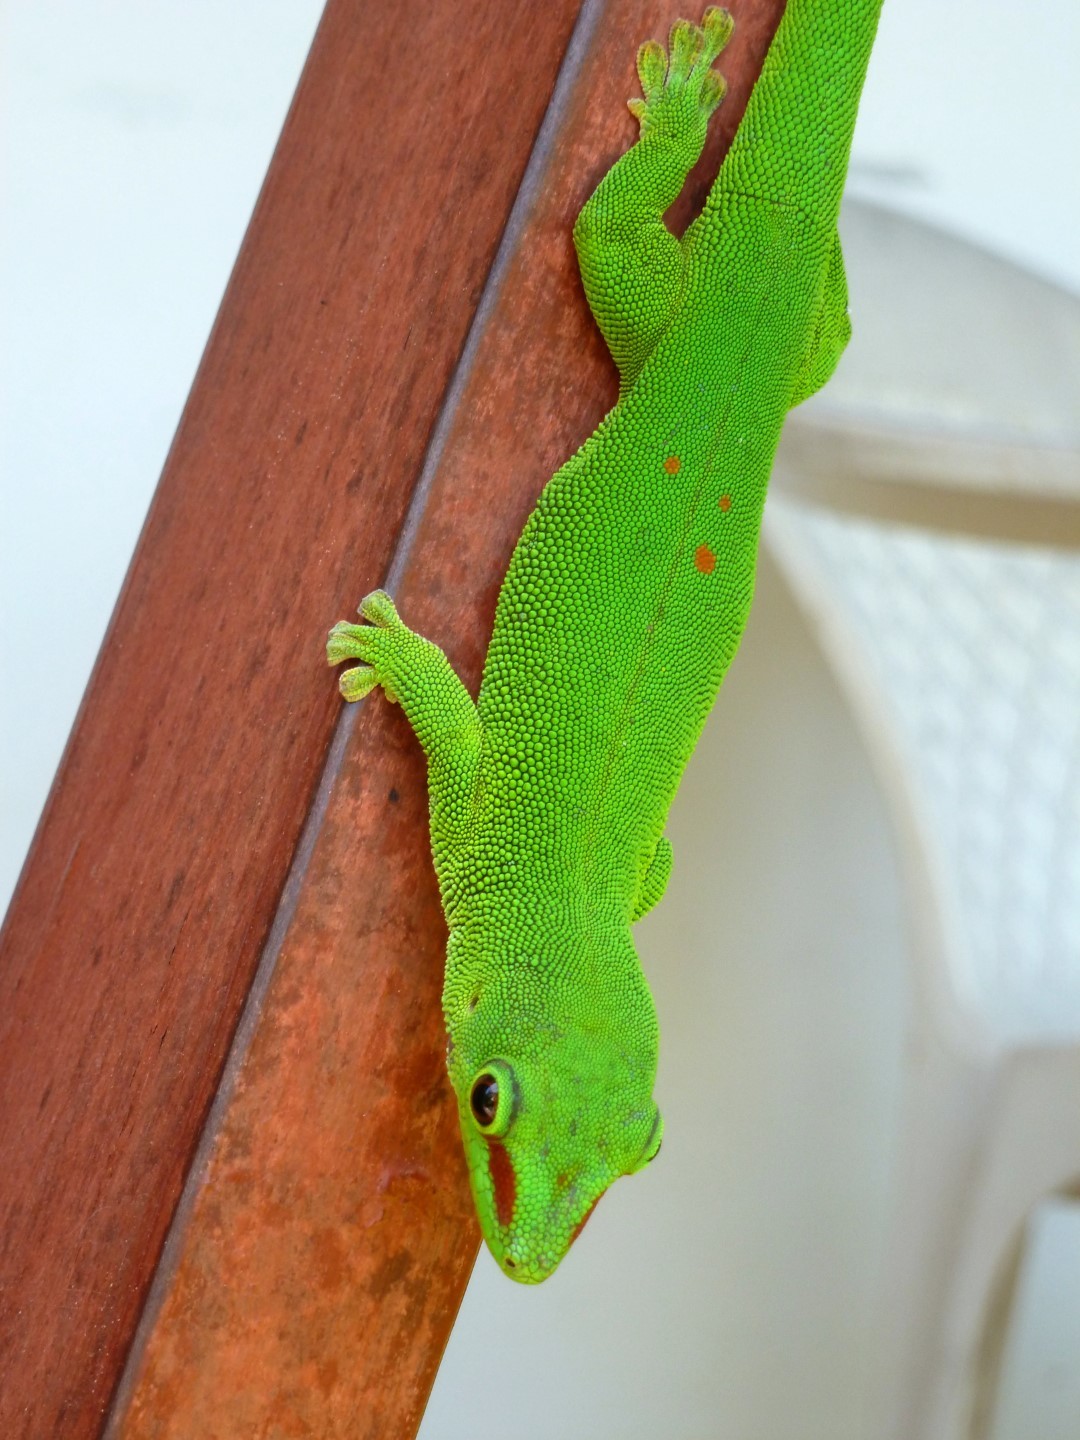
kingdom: Animalia
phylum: Chordata
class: Squamata
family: Gekkonidae
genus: Phelsuma
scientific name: Phelsuma grandis
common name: Madagascar giant day gecko
